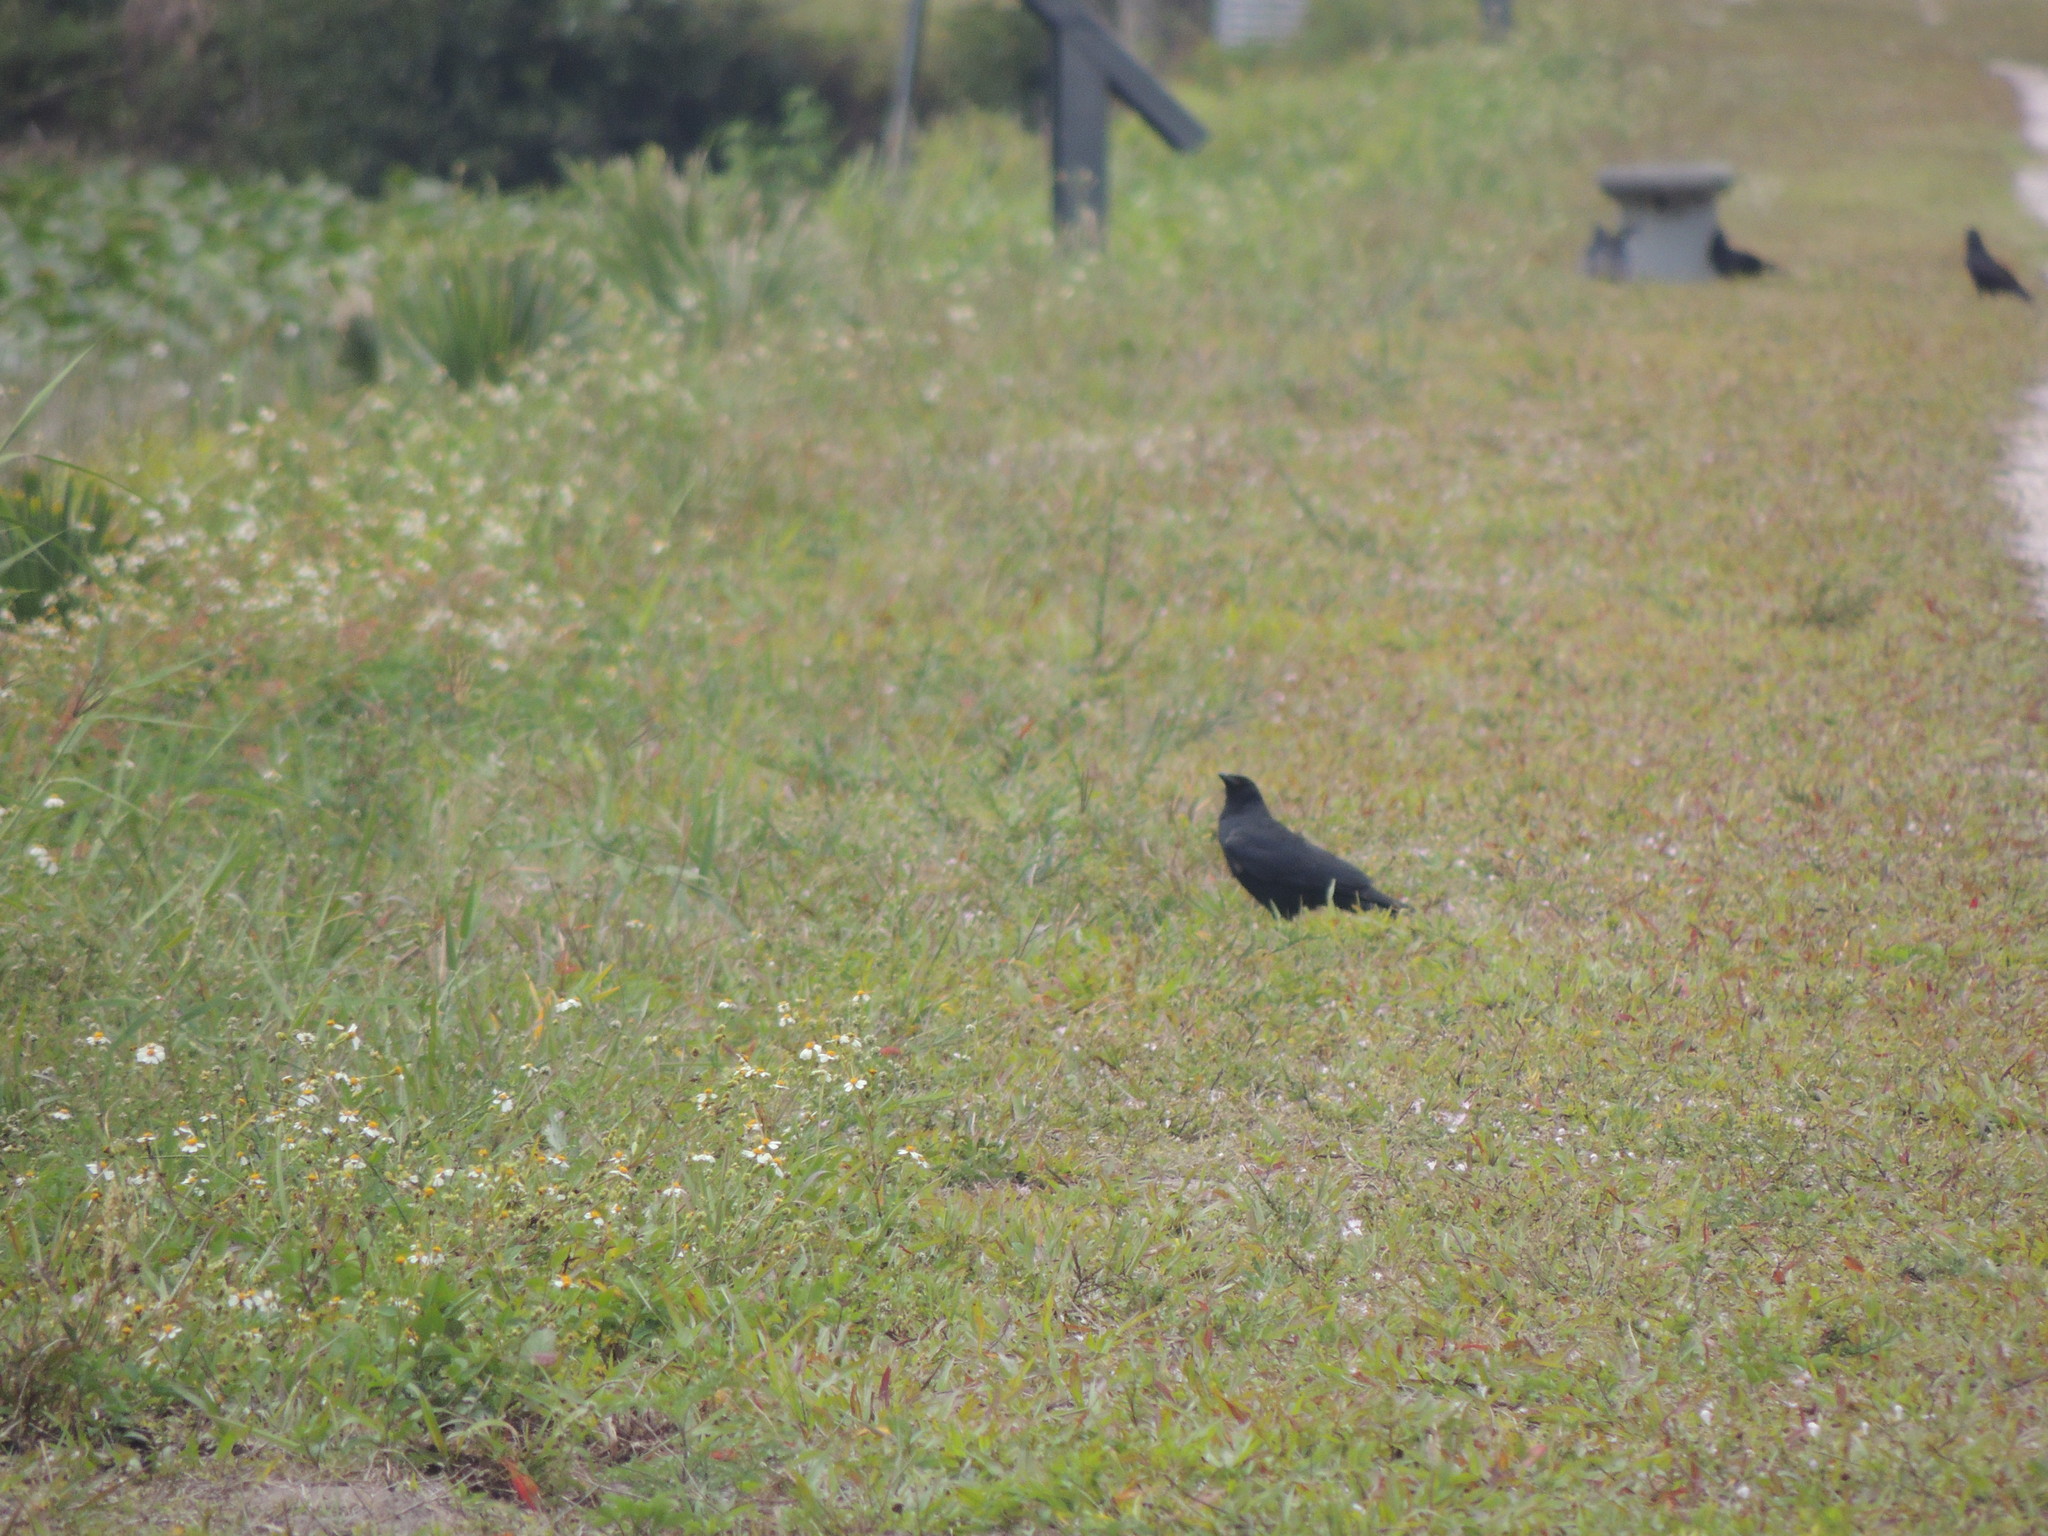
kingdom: Animalia
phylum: Chordata
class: Aves
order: Passeriformes
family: Corvidae
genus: Corvus
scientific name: Corvus ossifragus
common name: Fish crow
